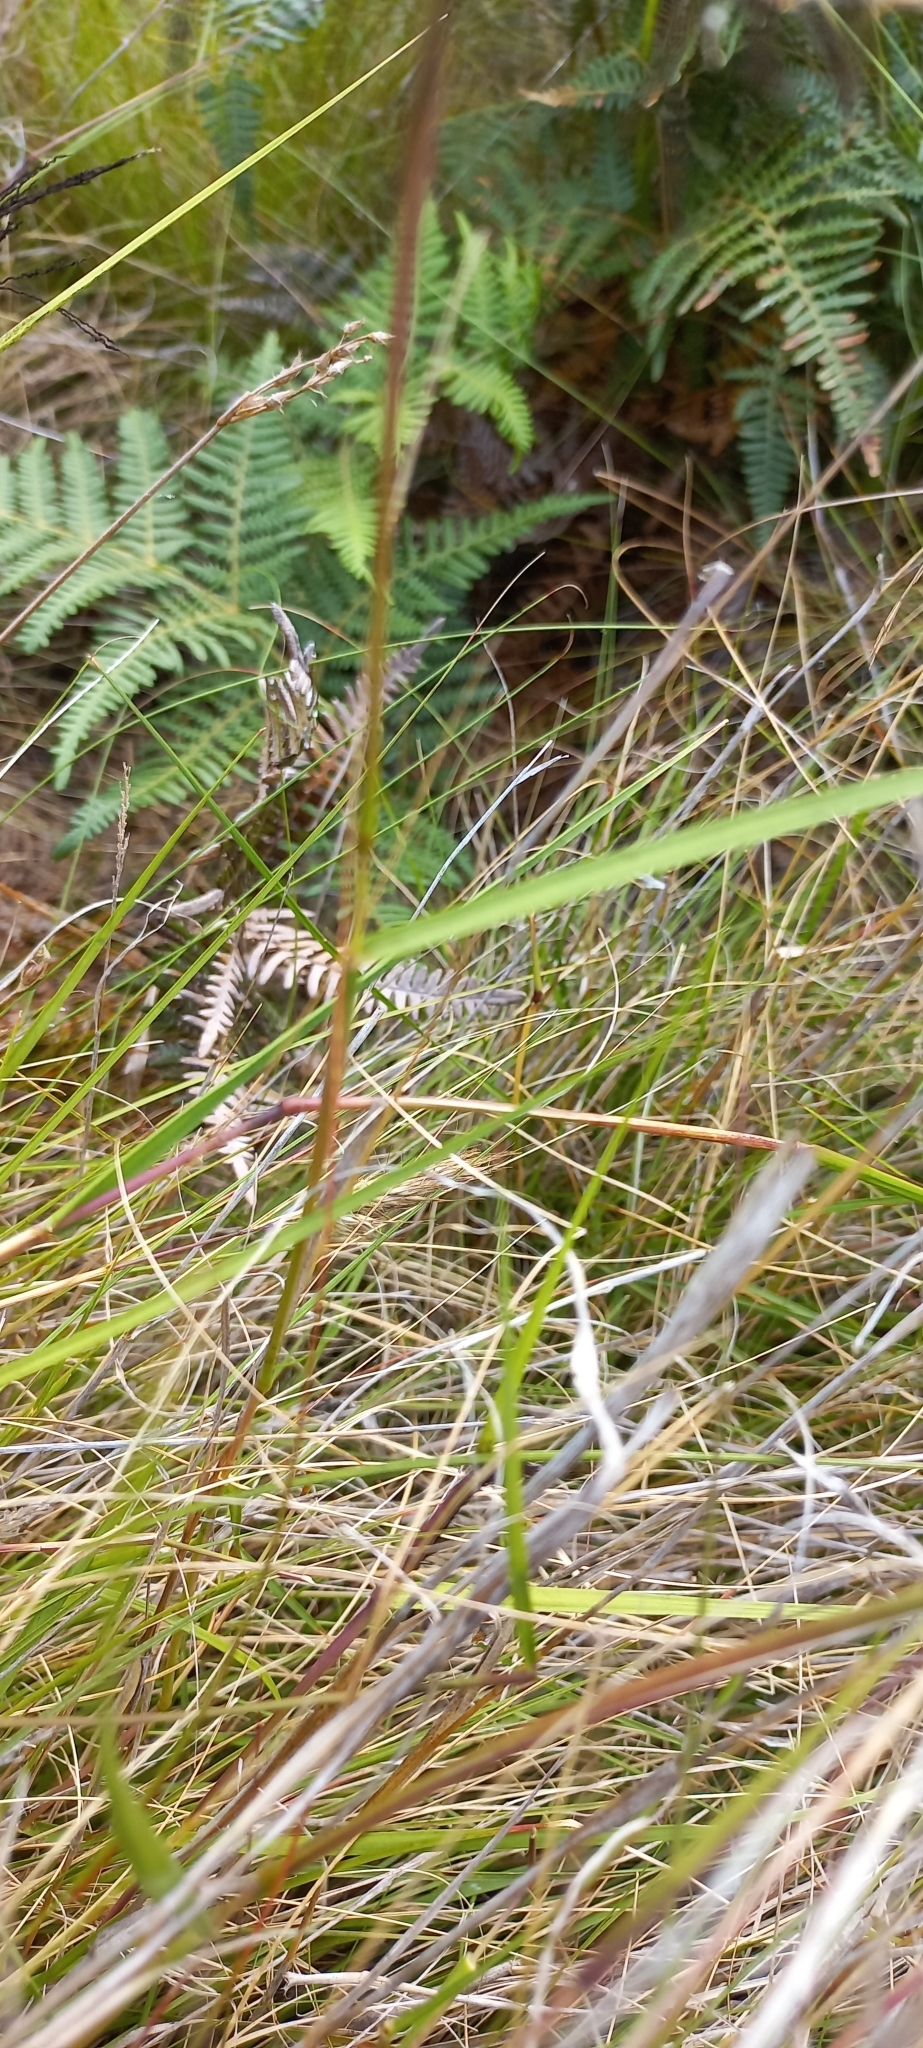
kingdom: Plantae
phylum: Tracheophyta
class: Polypodiopsida
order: Polypodiales
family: Dennstaedtiaceae
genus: Pteridium
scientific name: Pteridium aquilinum
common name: Bracken
